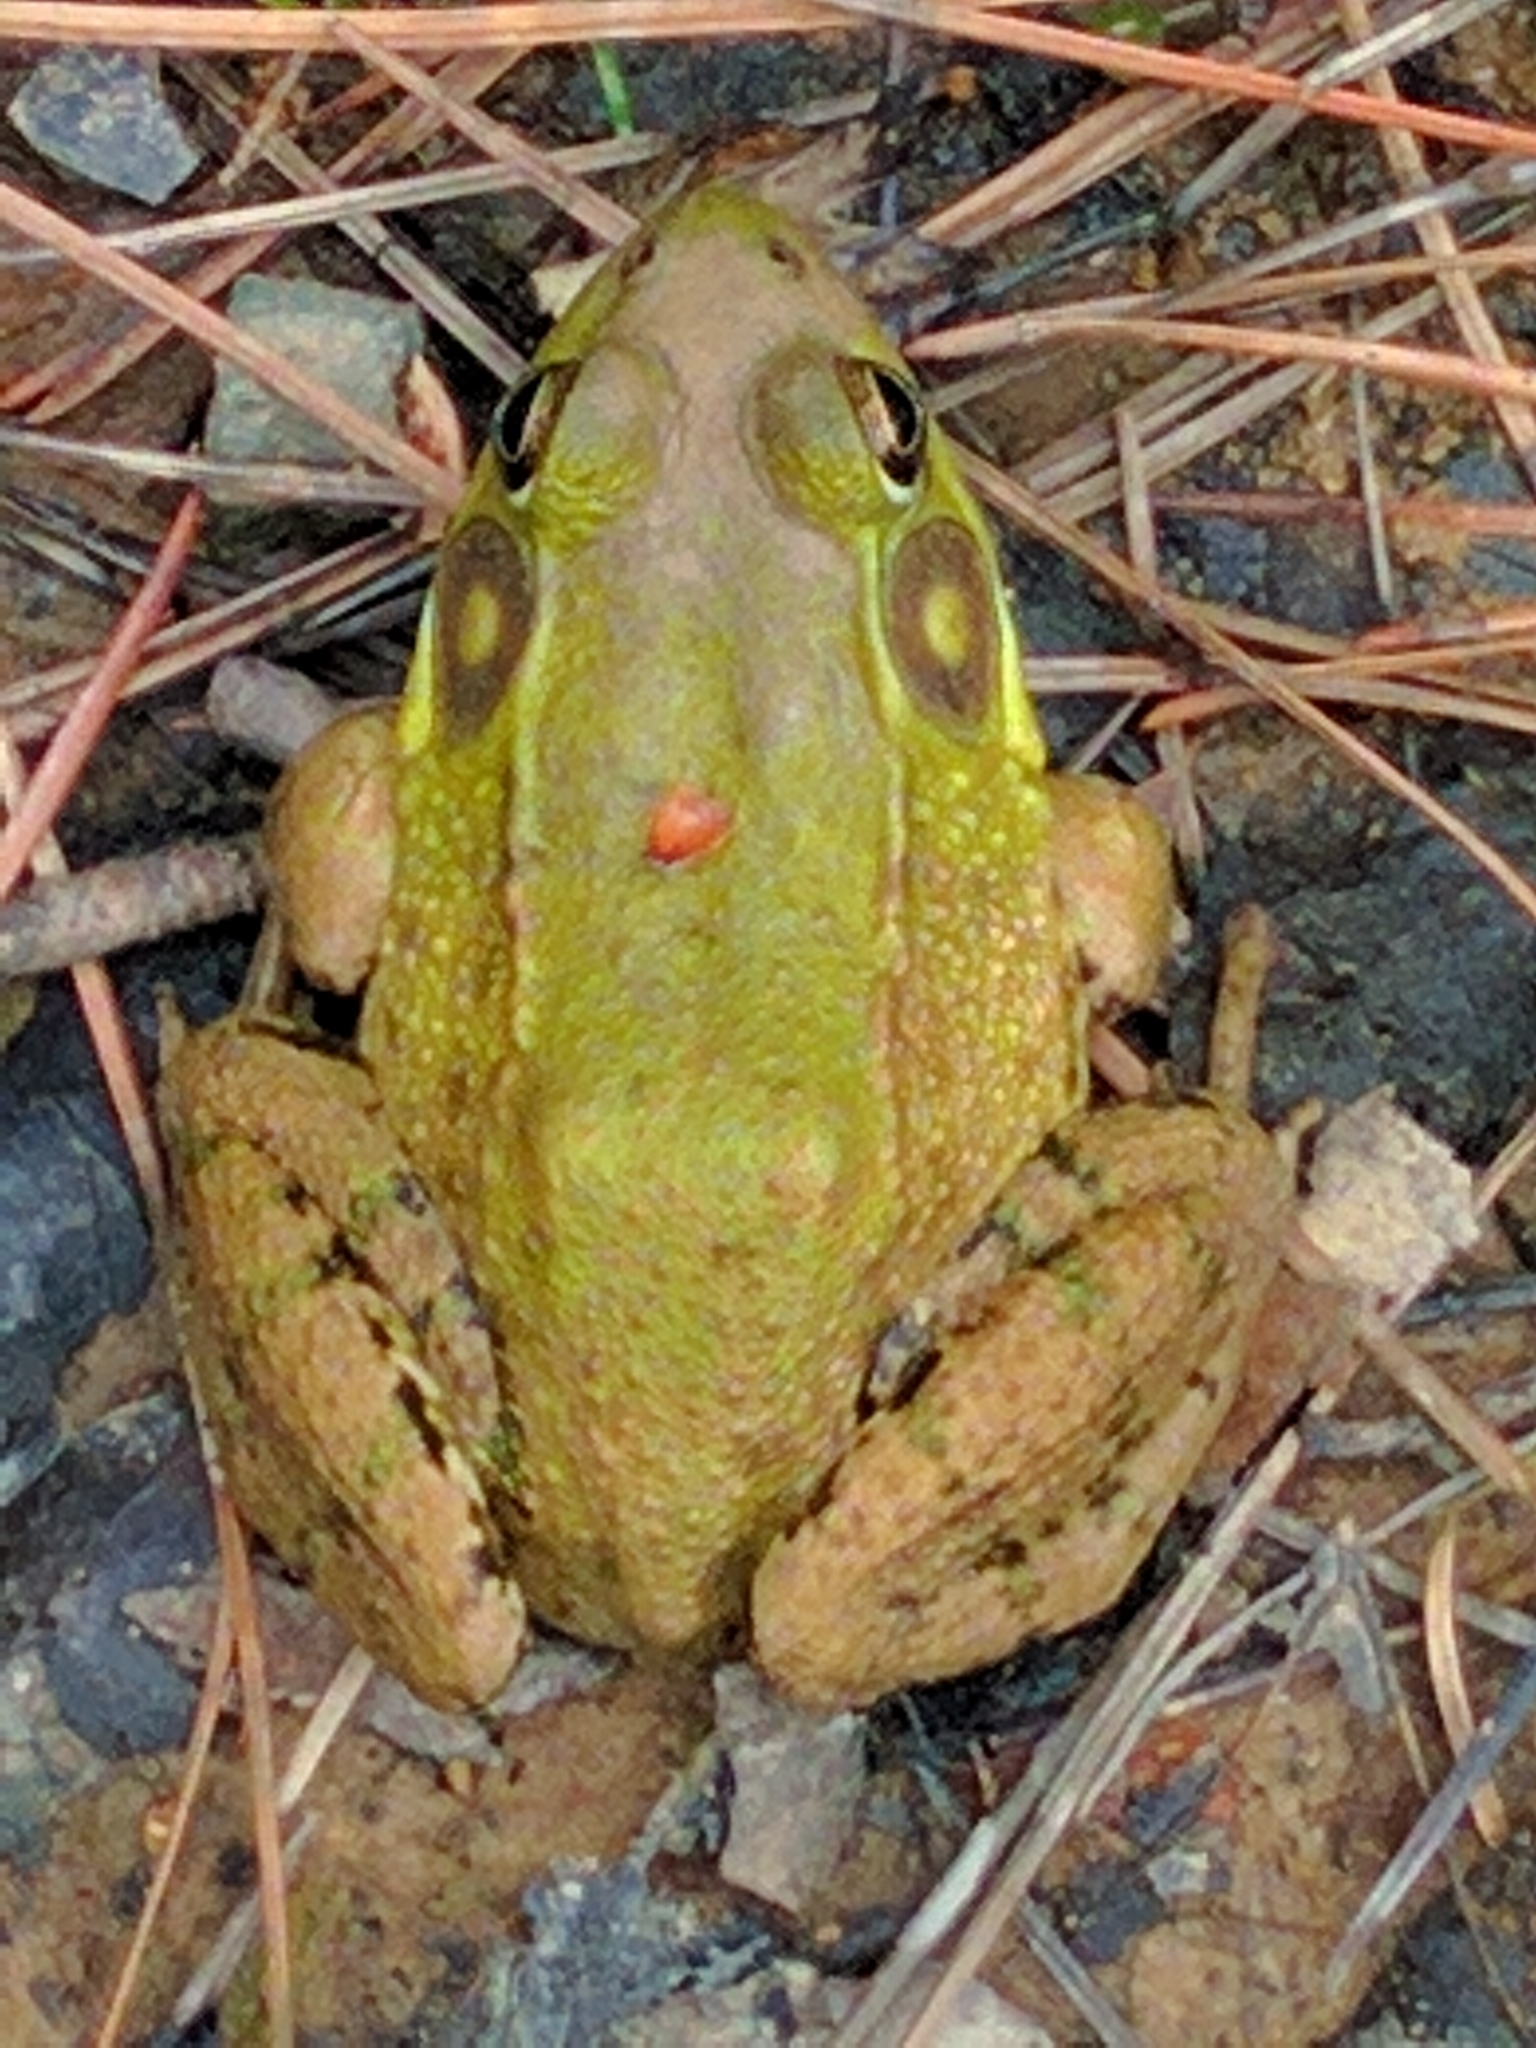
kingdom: Animalia
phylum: Chordata
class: Amphibia
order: Anura
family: Ranidae
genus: Lithobates
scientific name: Lithobates clamitans
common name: Green frog
